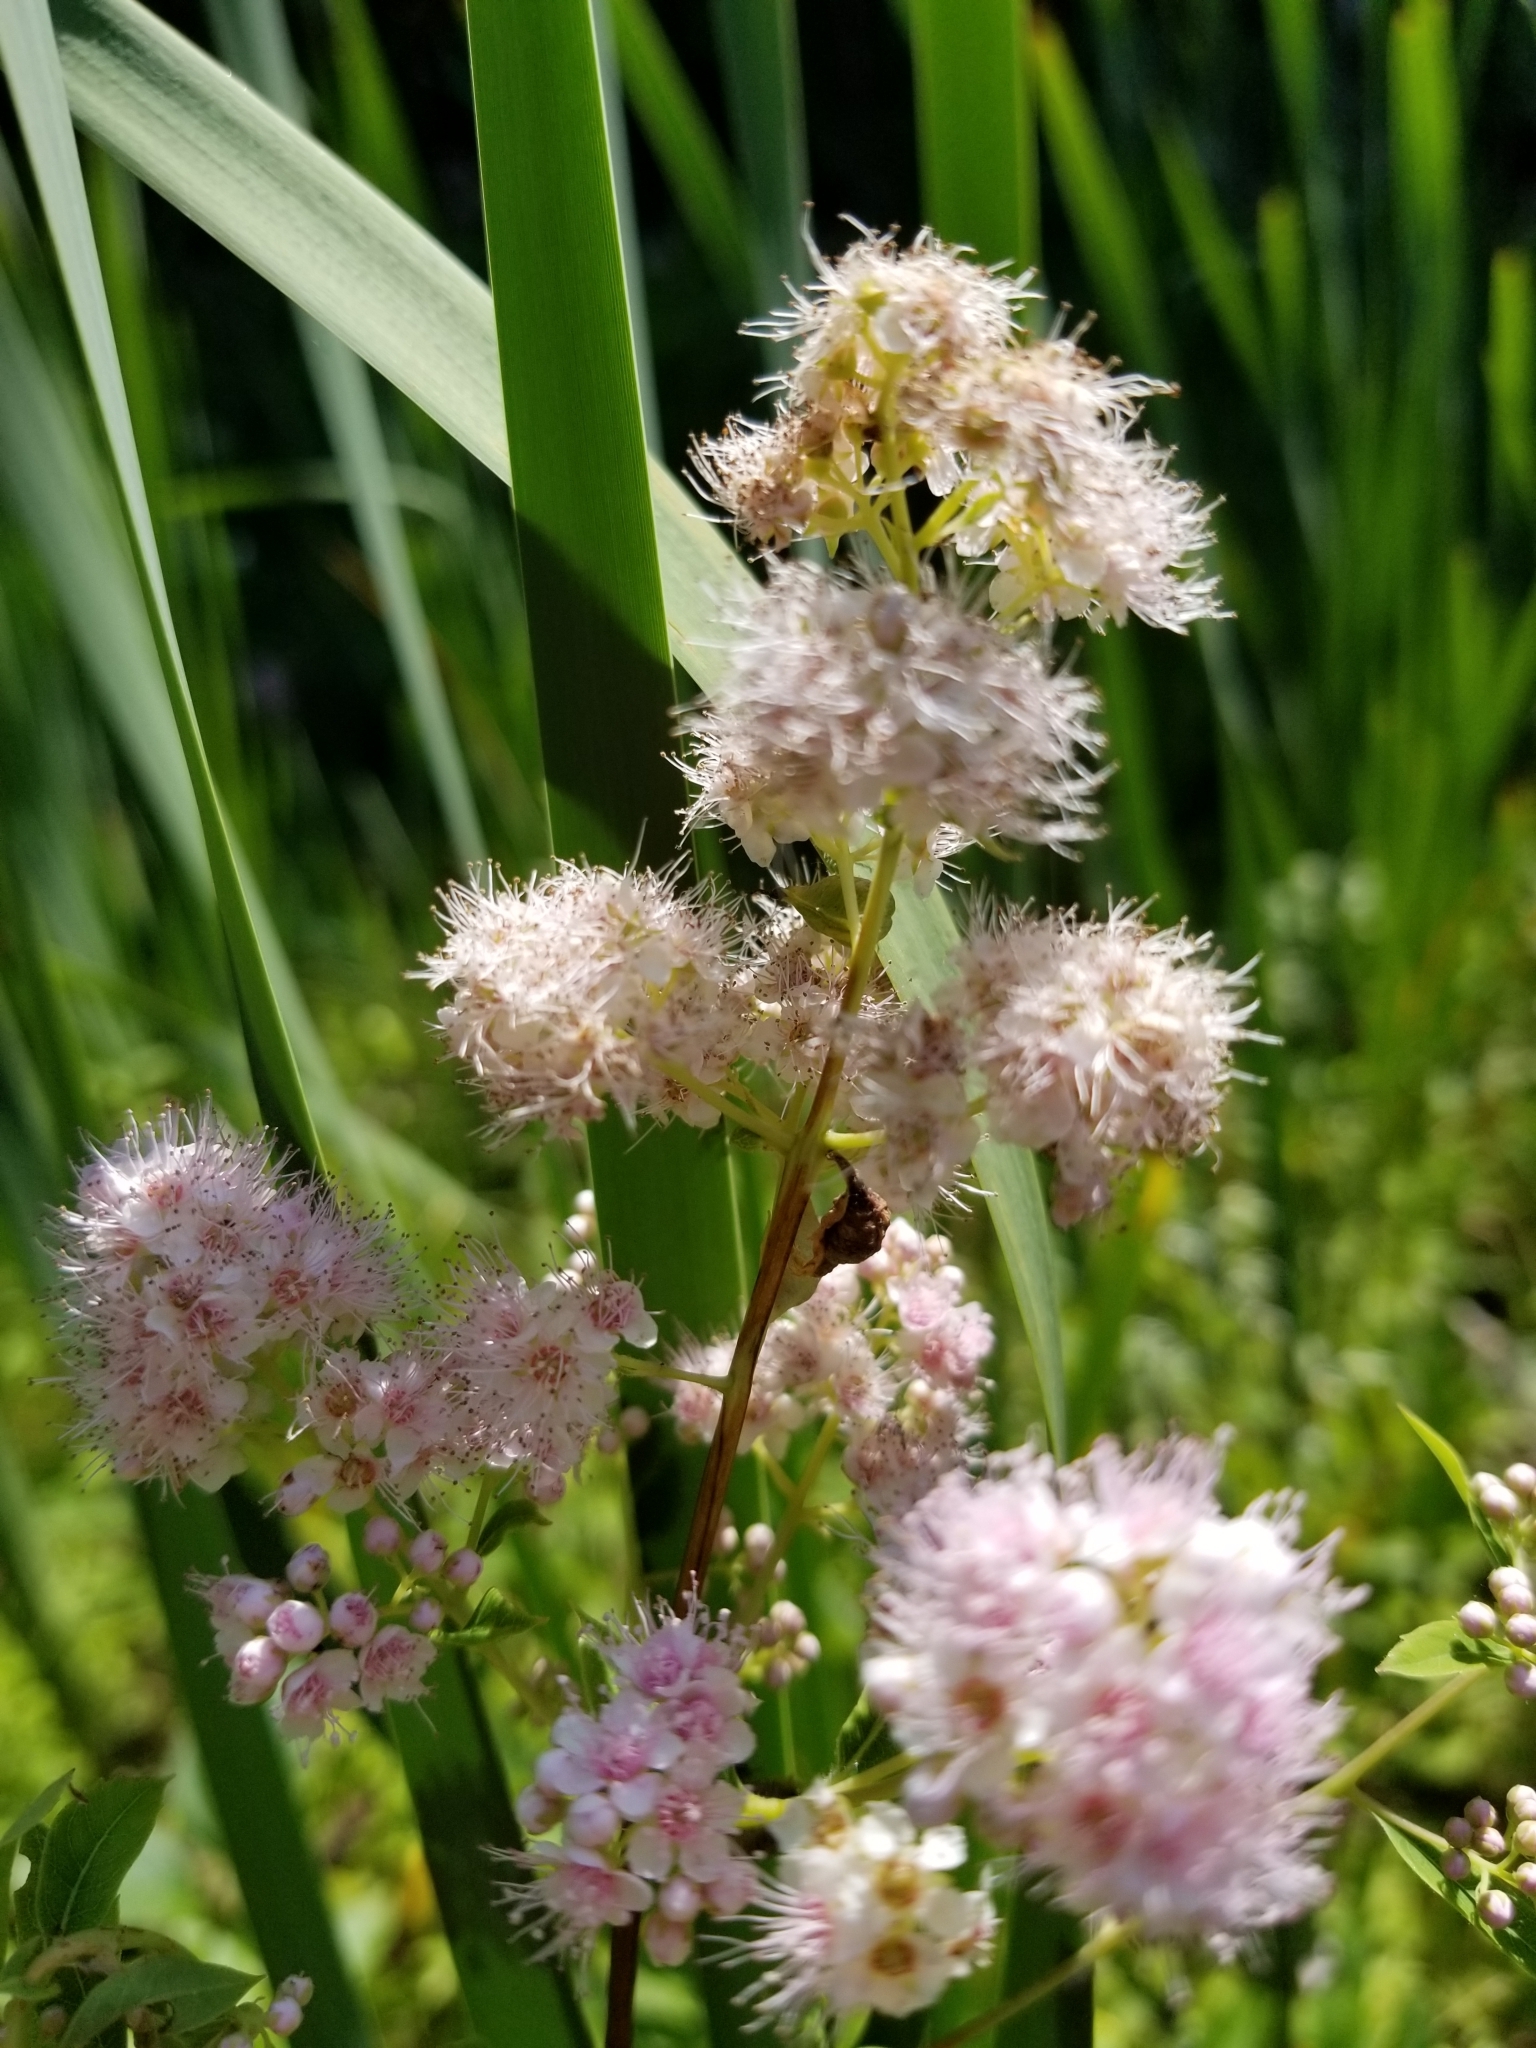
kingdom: Plantae
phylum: Tracheophyta
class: Magnoliopsida
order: Rosales
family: Rosaceae
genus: Spiraea
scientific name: Spiraea alba
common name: Pale bridewort
